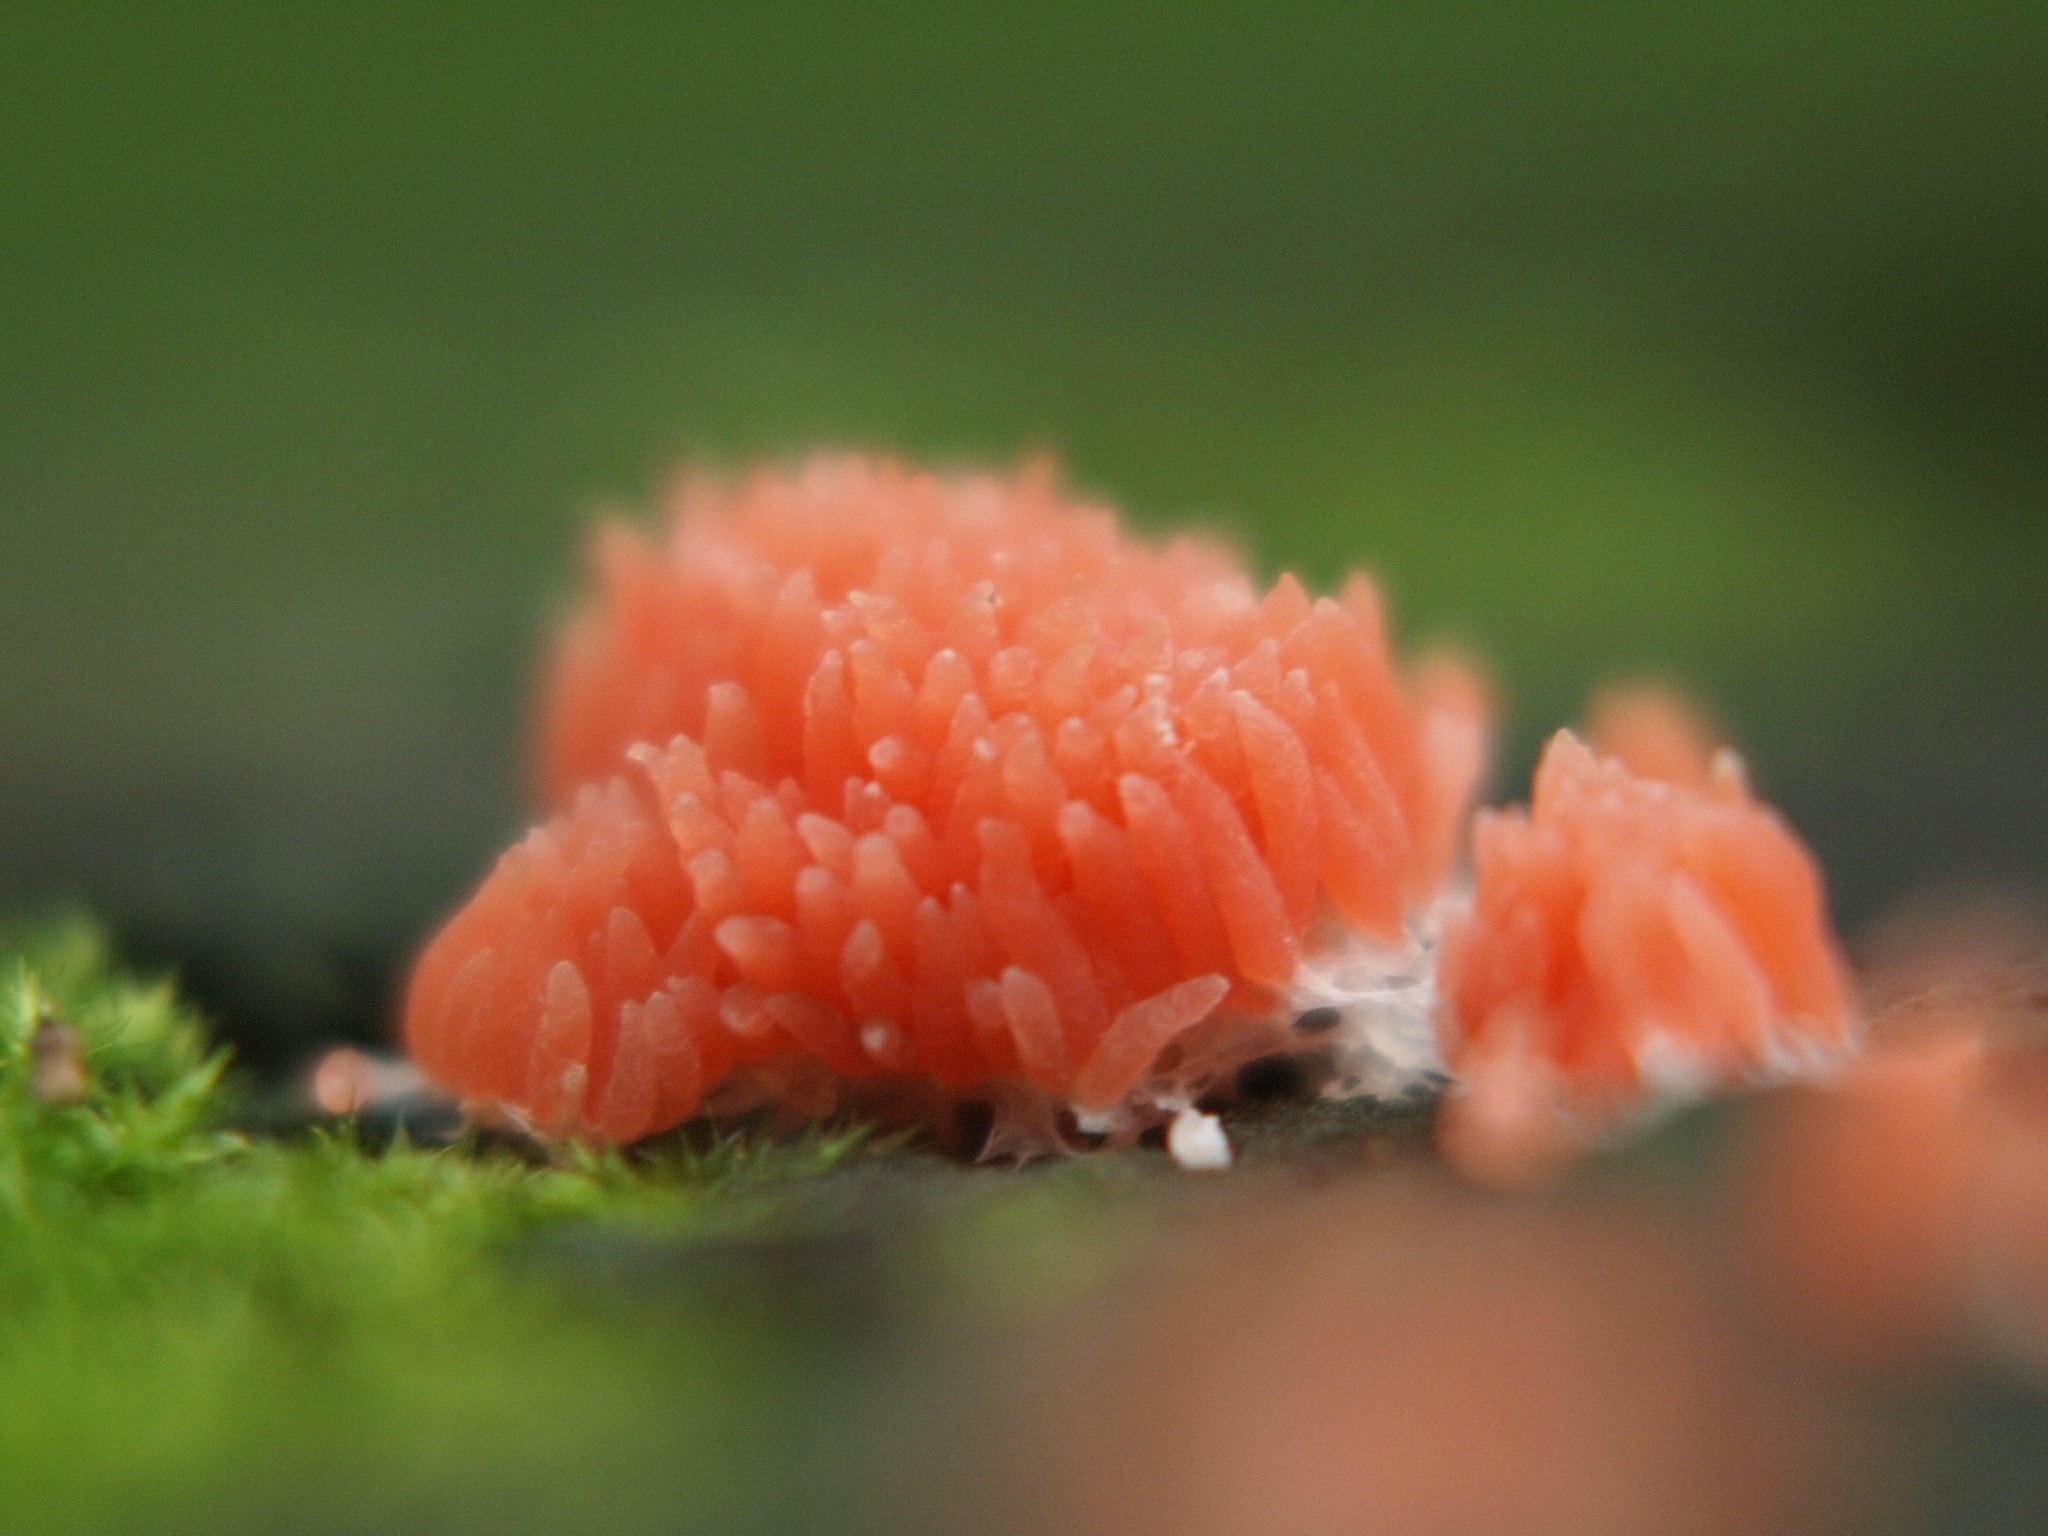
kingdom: Protozoa
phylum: Mycetozoa
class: Myxomycetes
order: Cribrariales
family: Tubiferaceae
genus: Tubifera
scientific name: Tubifera ferruginosa
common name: Red raspberry slime mold
